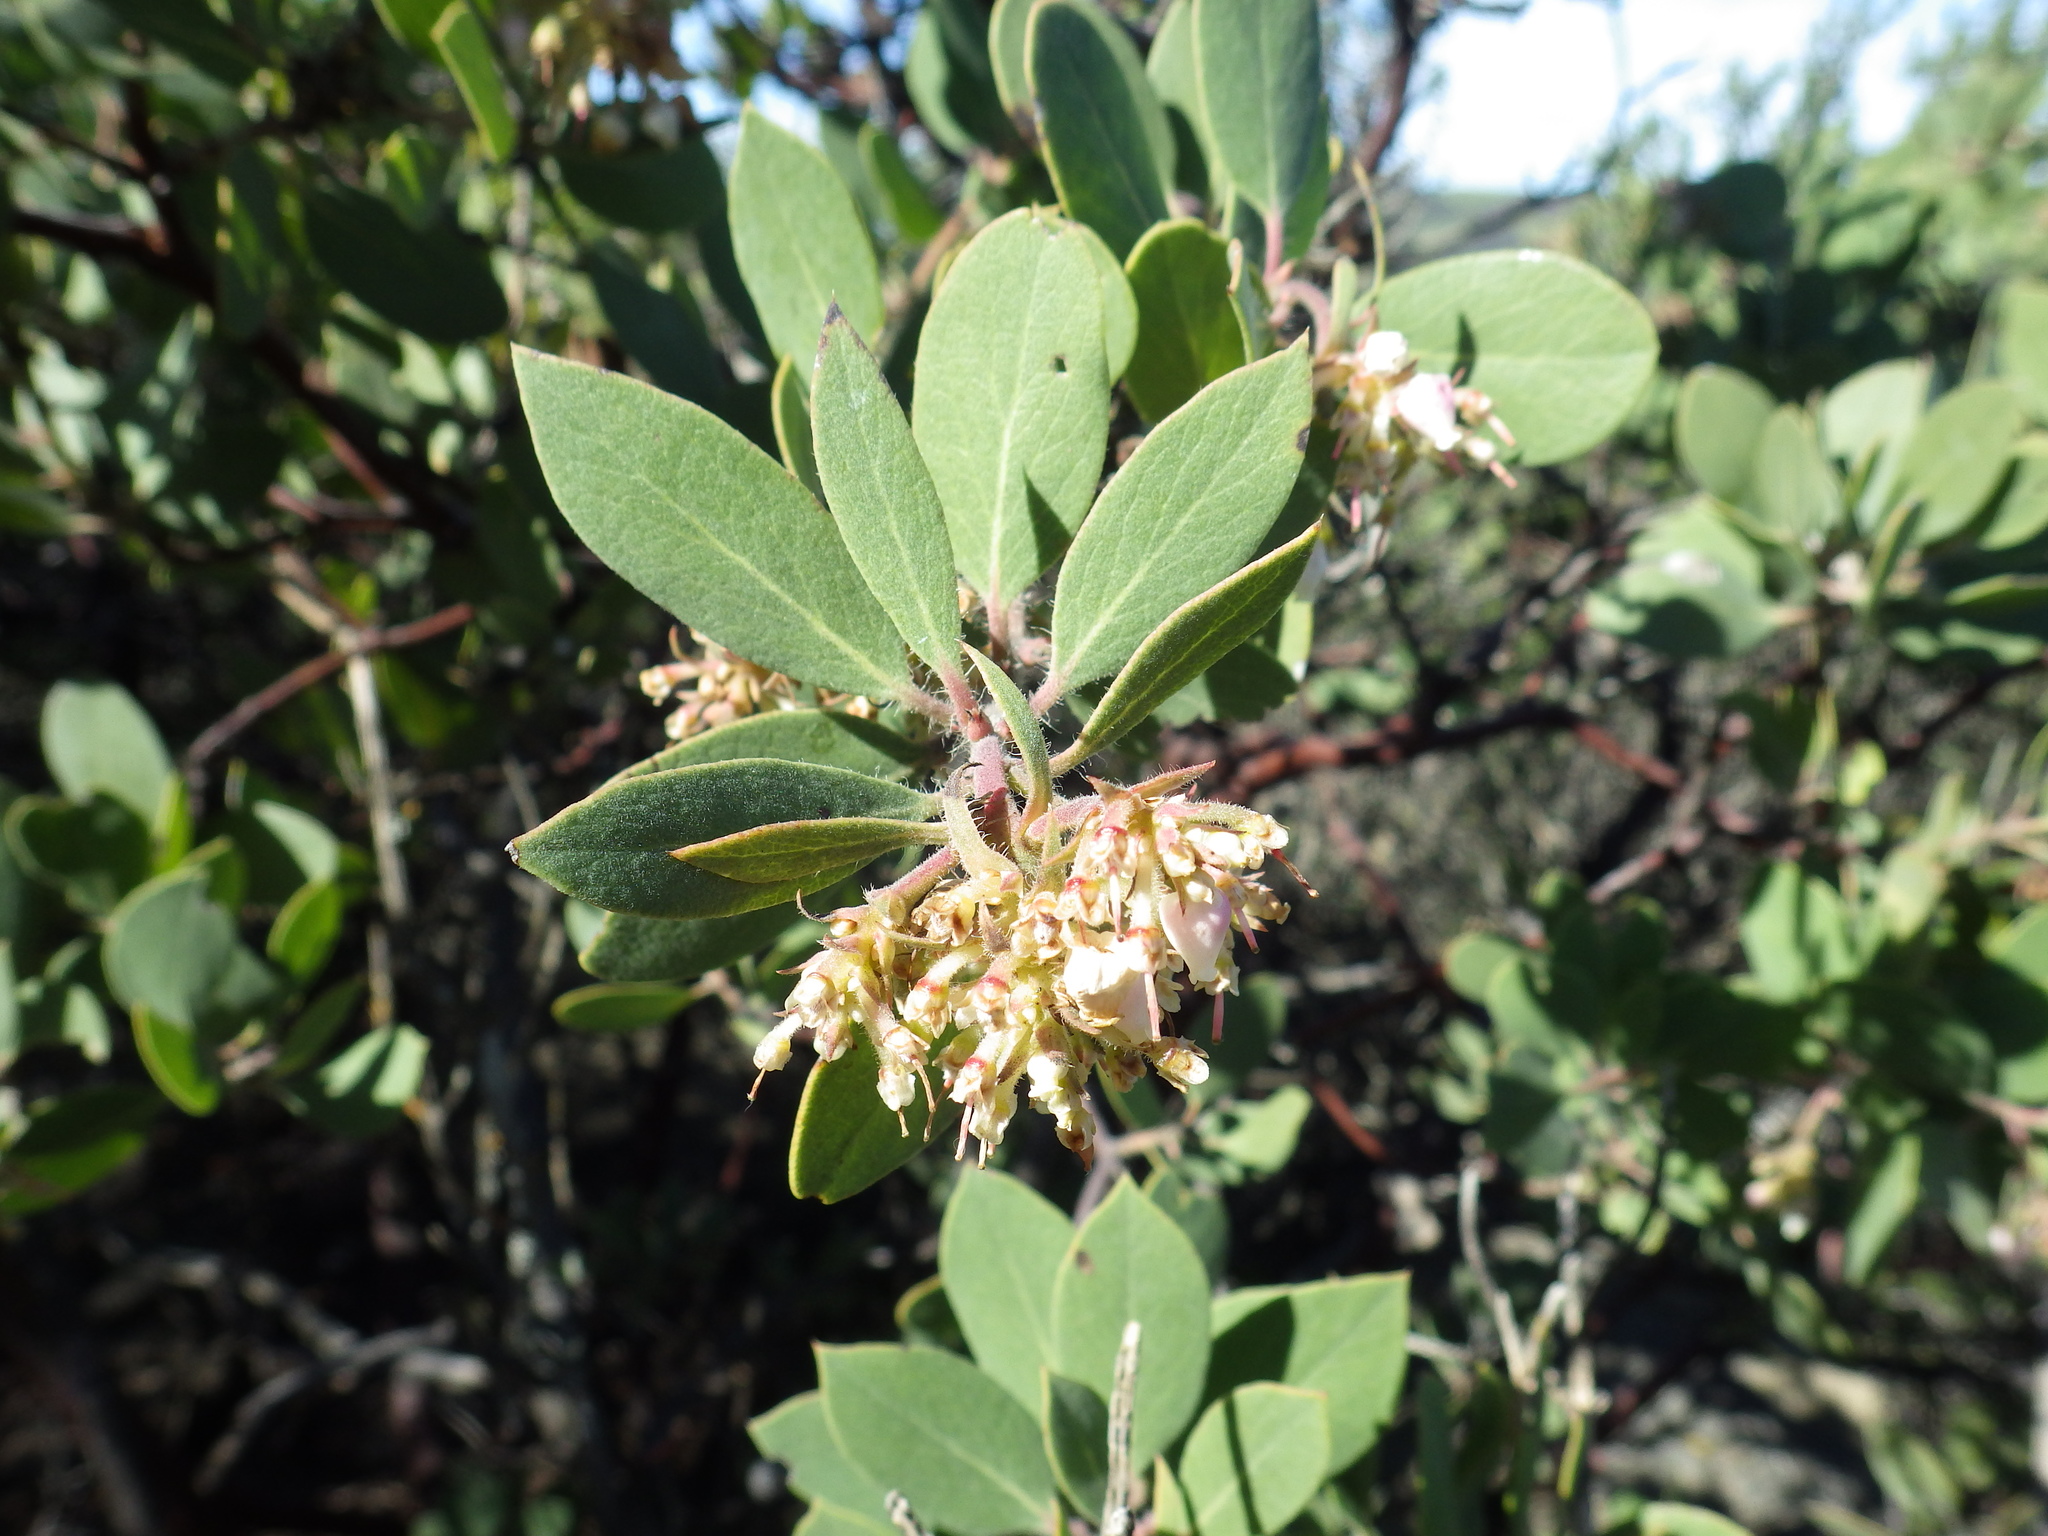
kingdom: Plantae
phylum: Tracheophyta
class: Magnoliopsida
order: Ericales
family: Ericaceae
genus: Arctostaphylos
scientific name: Arctostaphylos glandulosa
